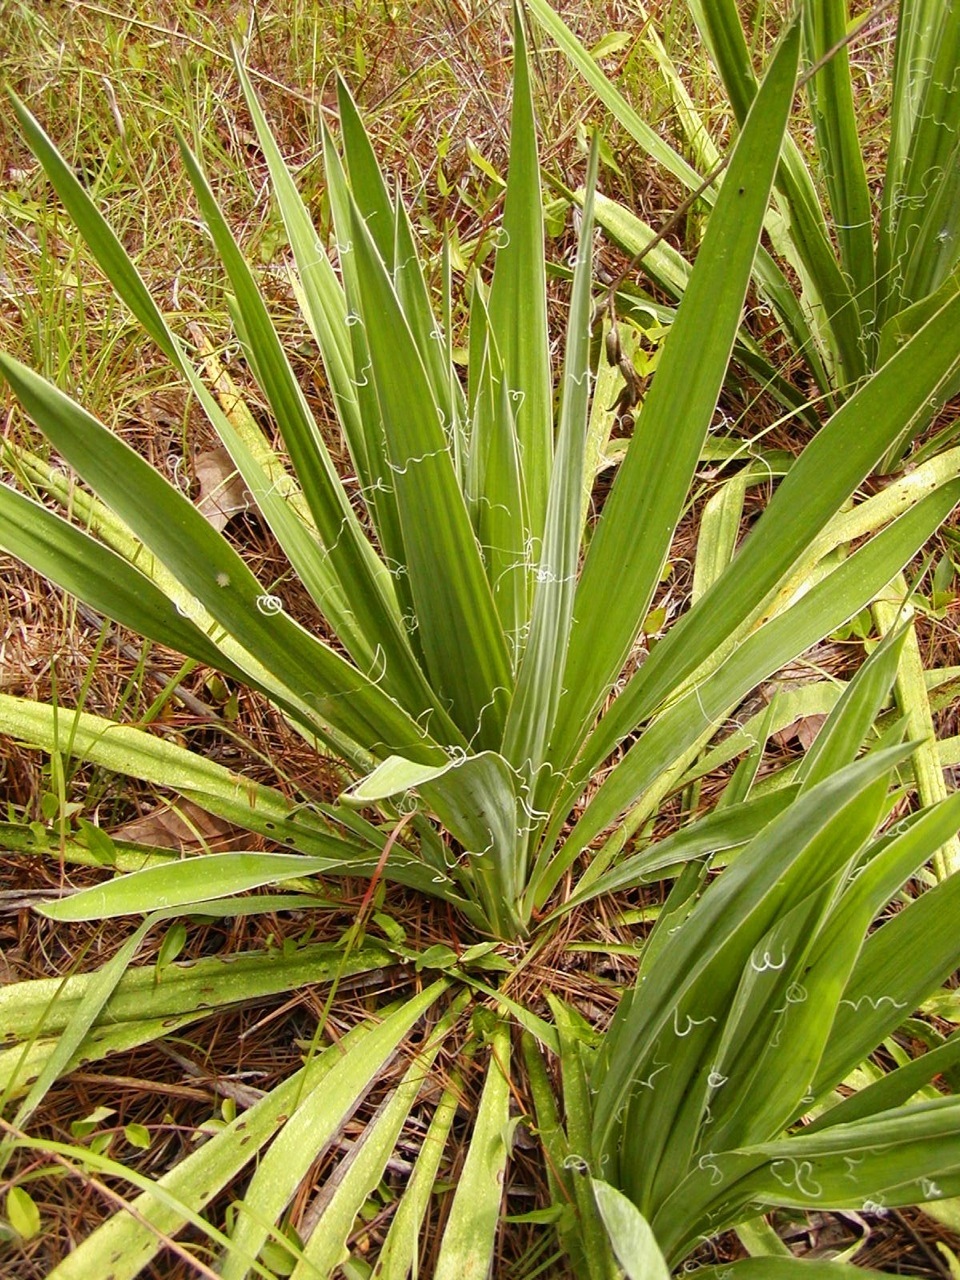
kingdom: Plantae
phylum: Tracheophyta
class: Liliopsida
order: Asparagales
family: Asparagaceae
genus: Yucca
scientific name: Yucca filamentosa
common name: Adam's-needle
